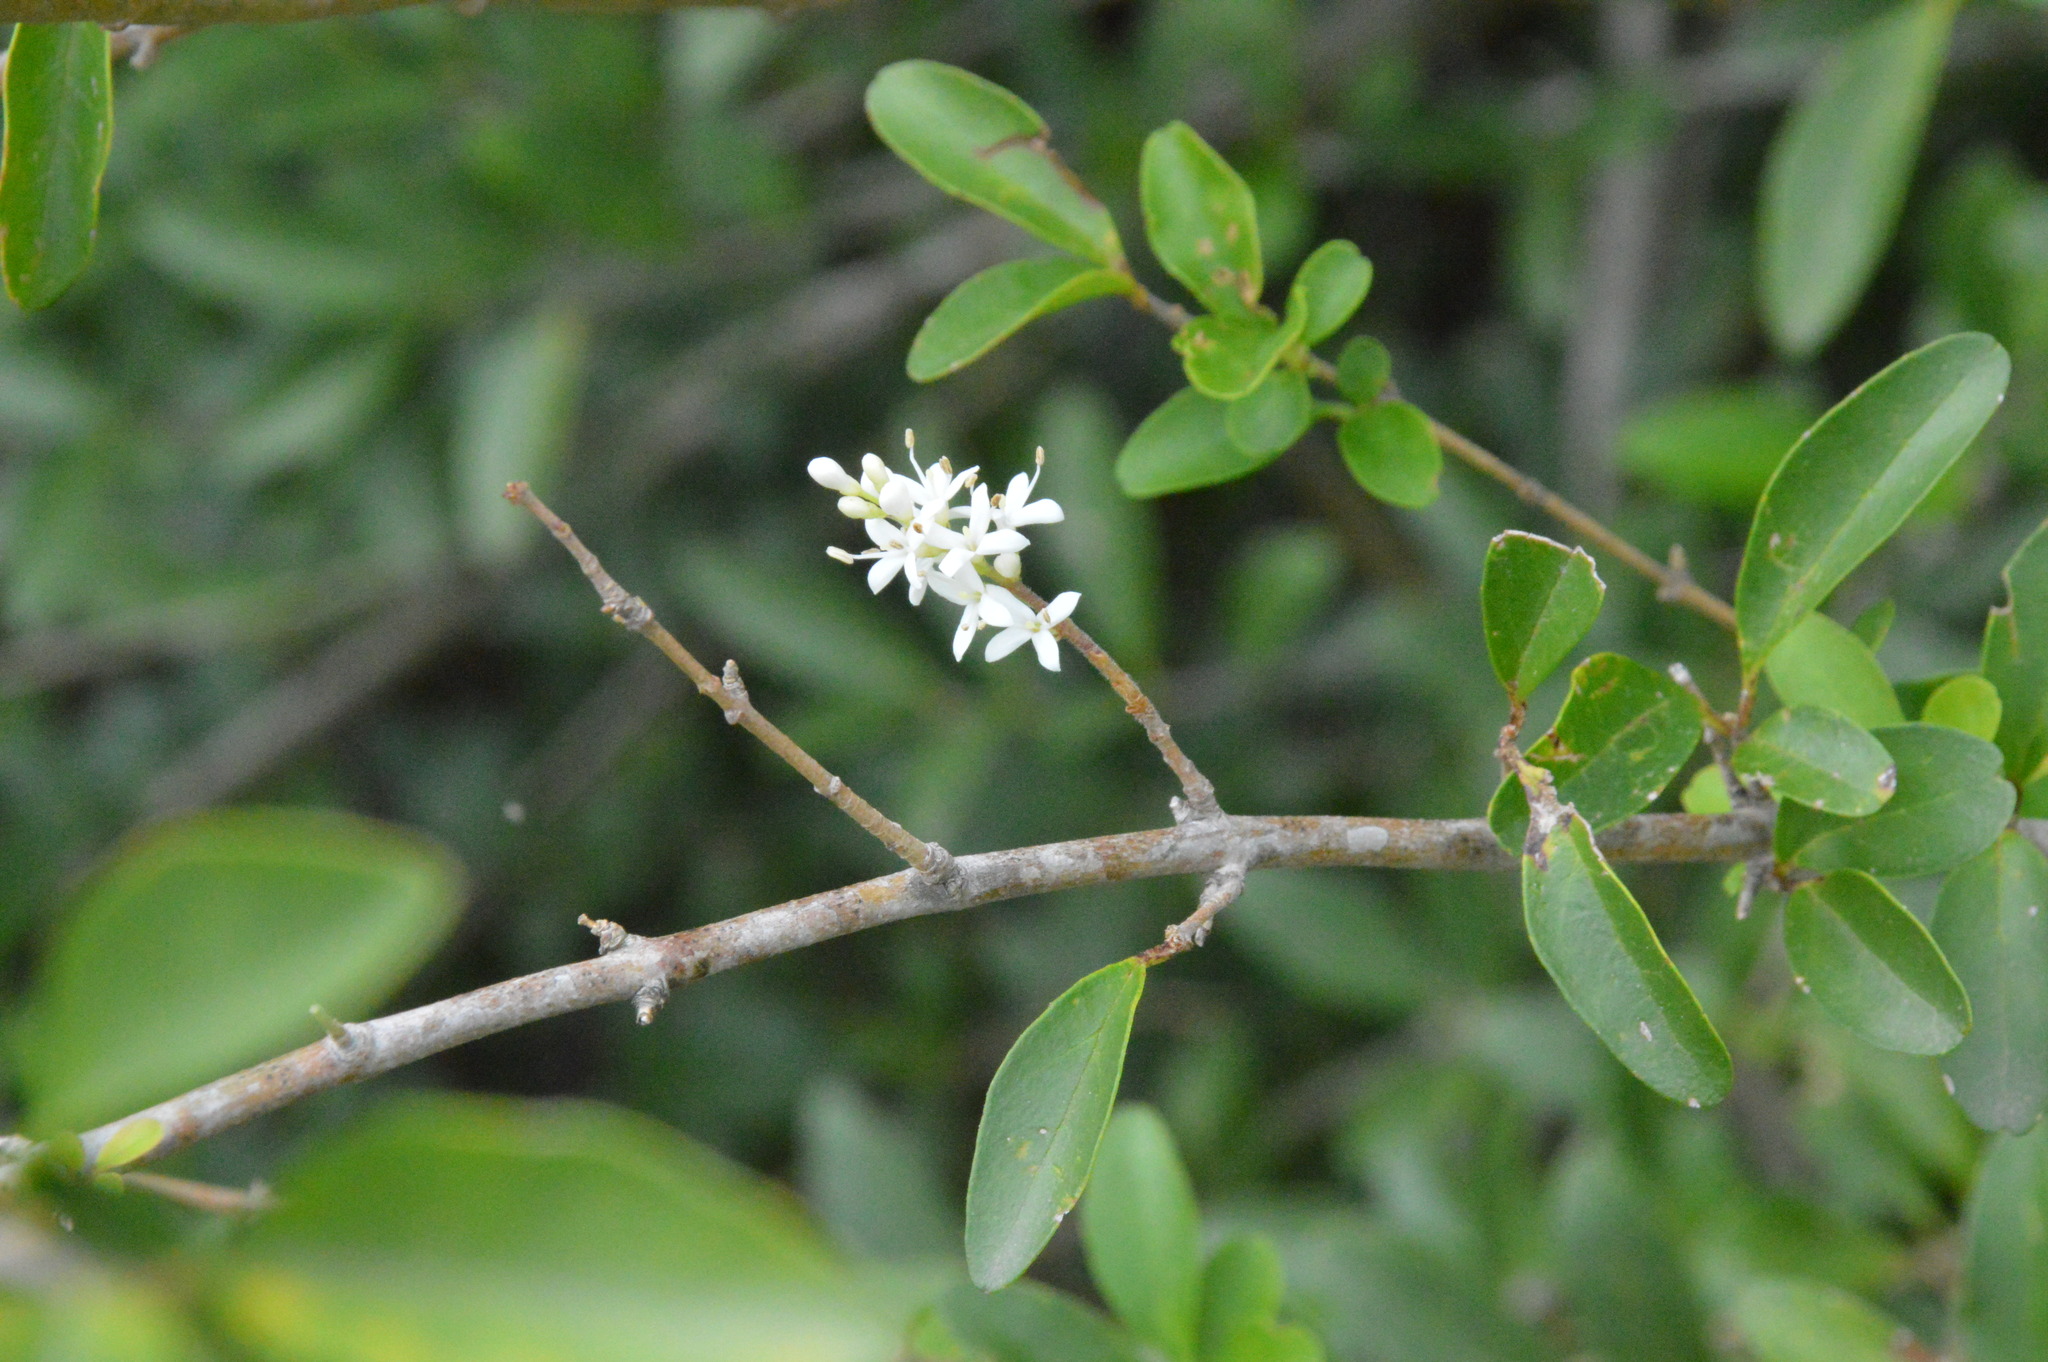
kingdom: Plantae
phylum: Tracheophyta
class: Magnoliopsida
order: Lamiales
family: Oleaceae
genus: Ligustrum
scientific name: Ligustrum sinense
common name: Chinese privet
